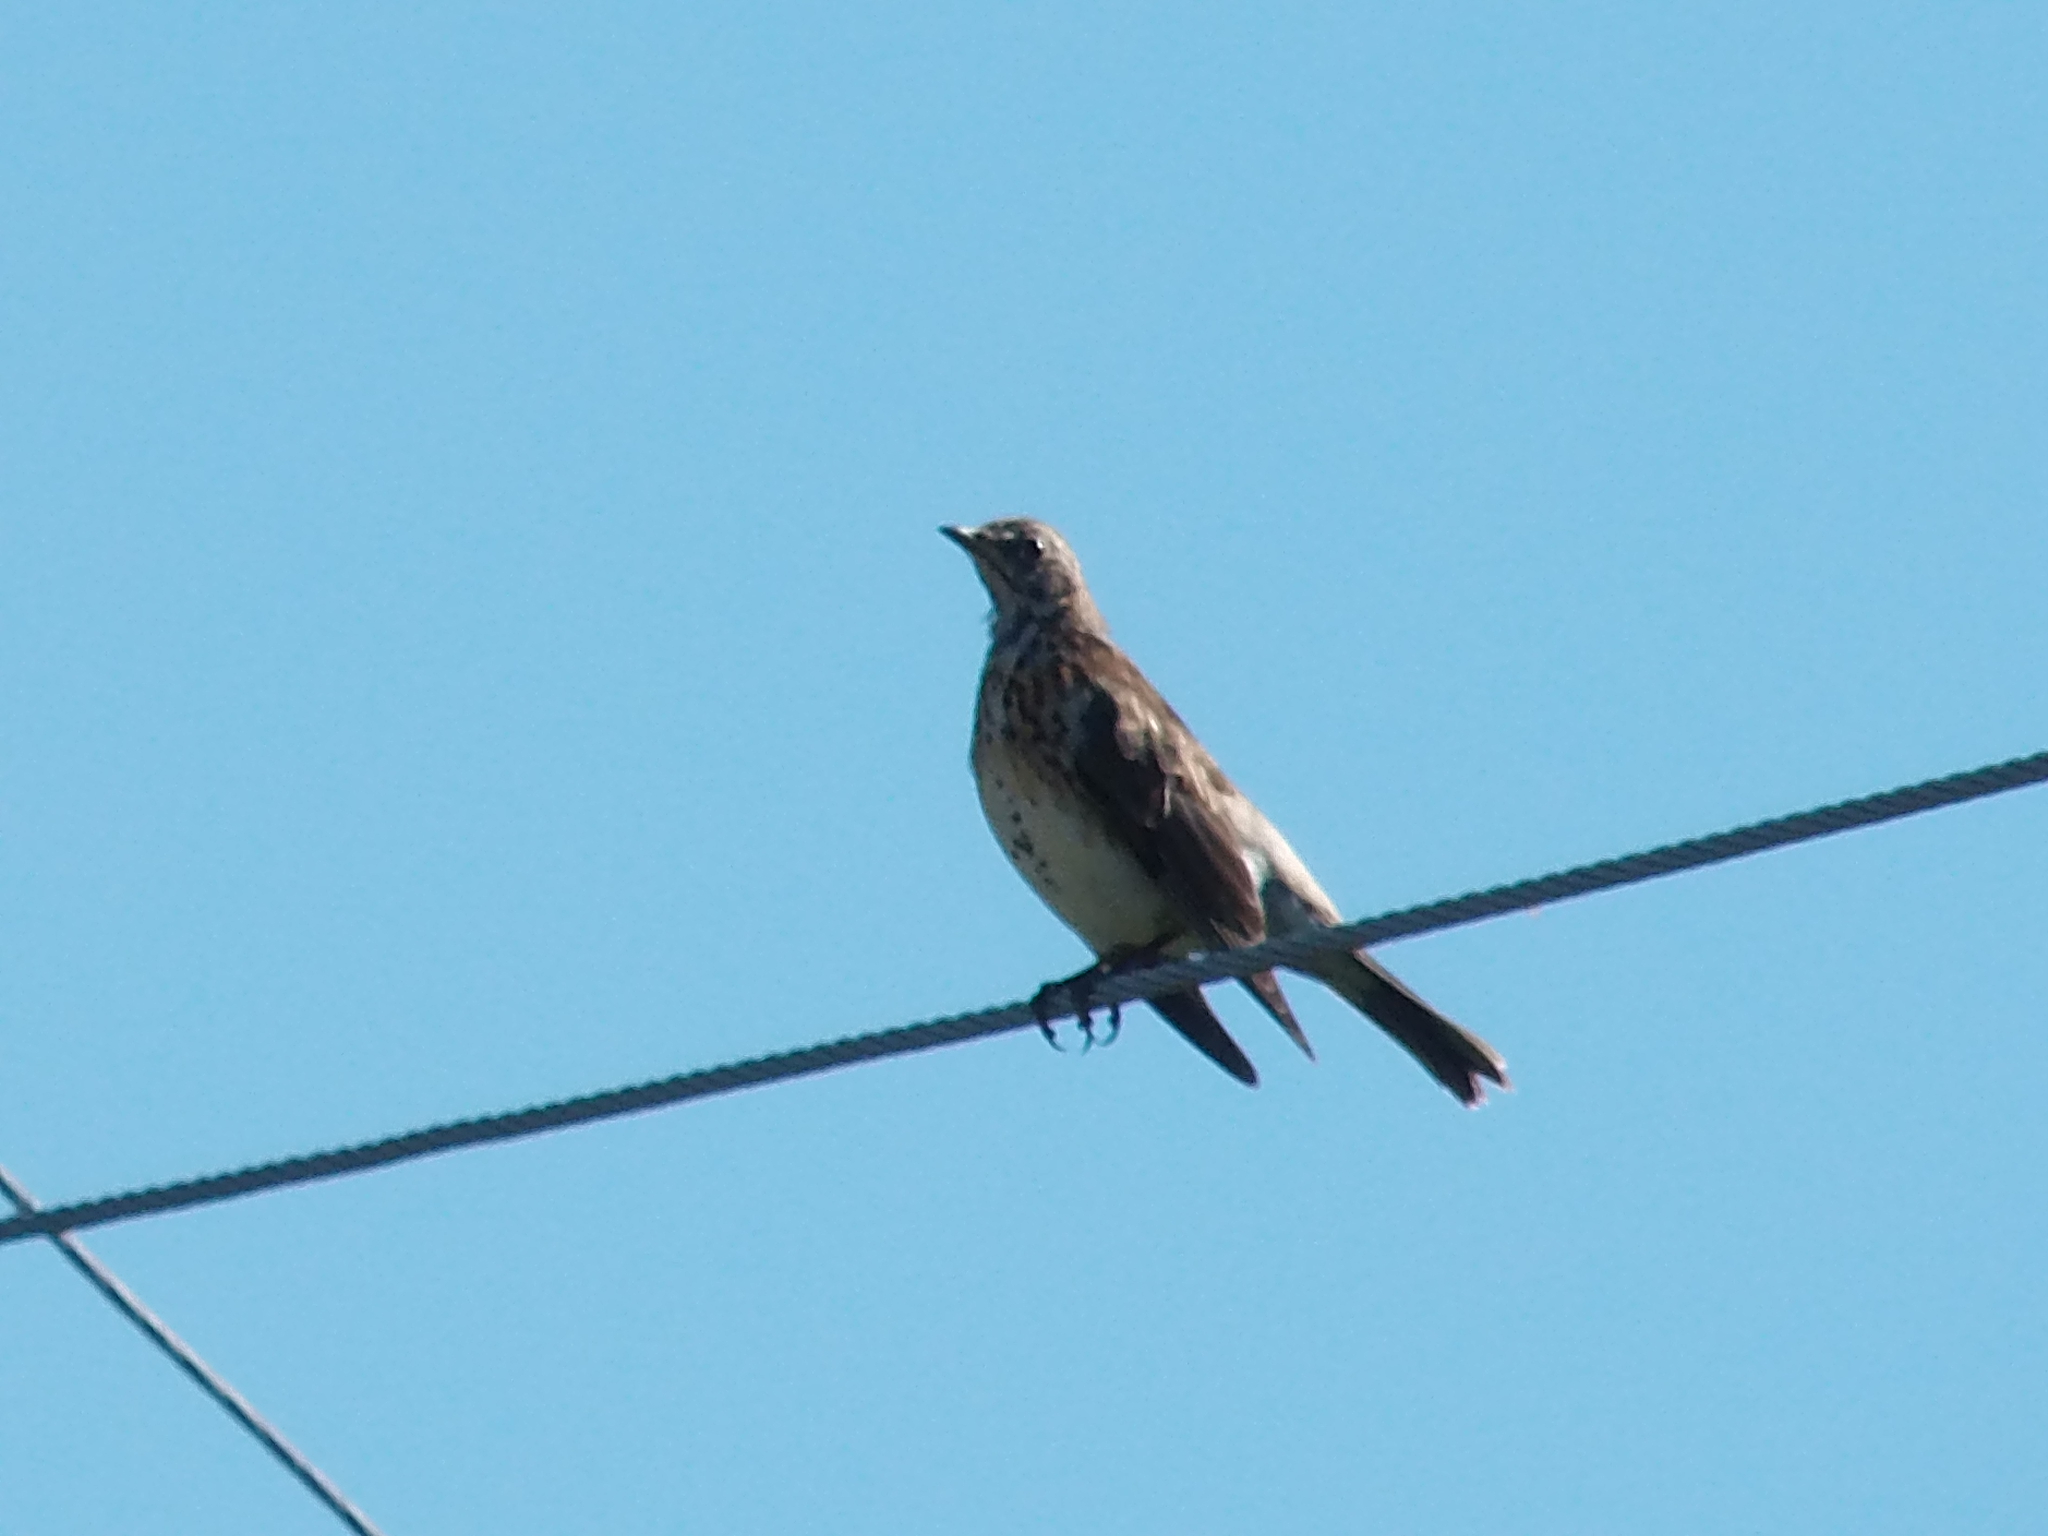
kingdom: Animalia
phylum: Chordata
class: Aves
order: Passeriformes
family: Turdidae
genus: Turdus
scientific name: Turdus pilaris
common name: Fieldfare
